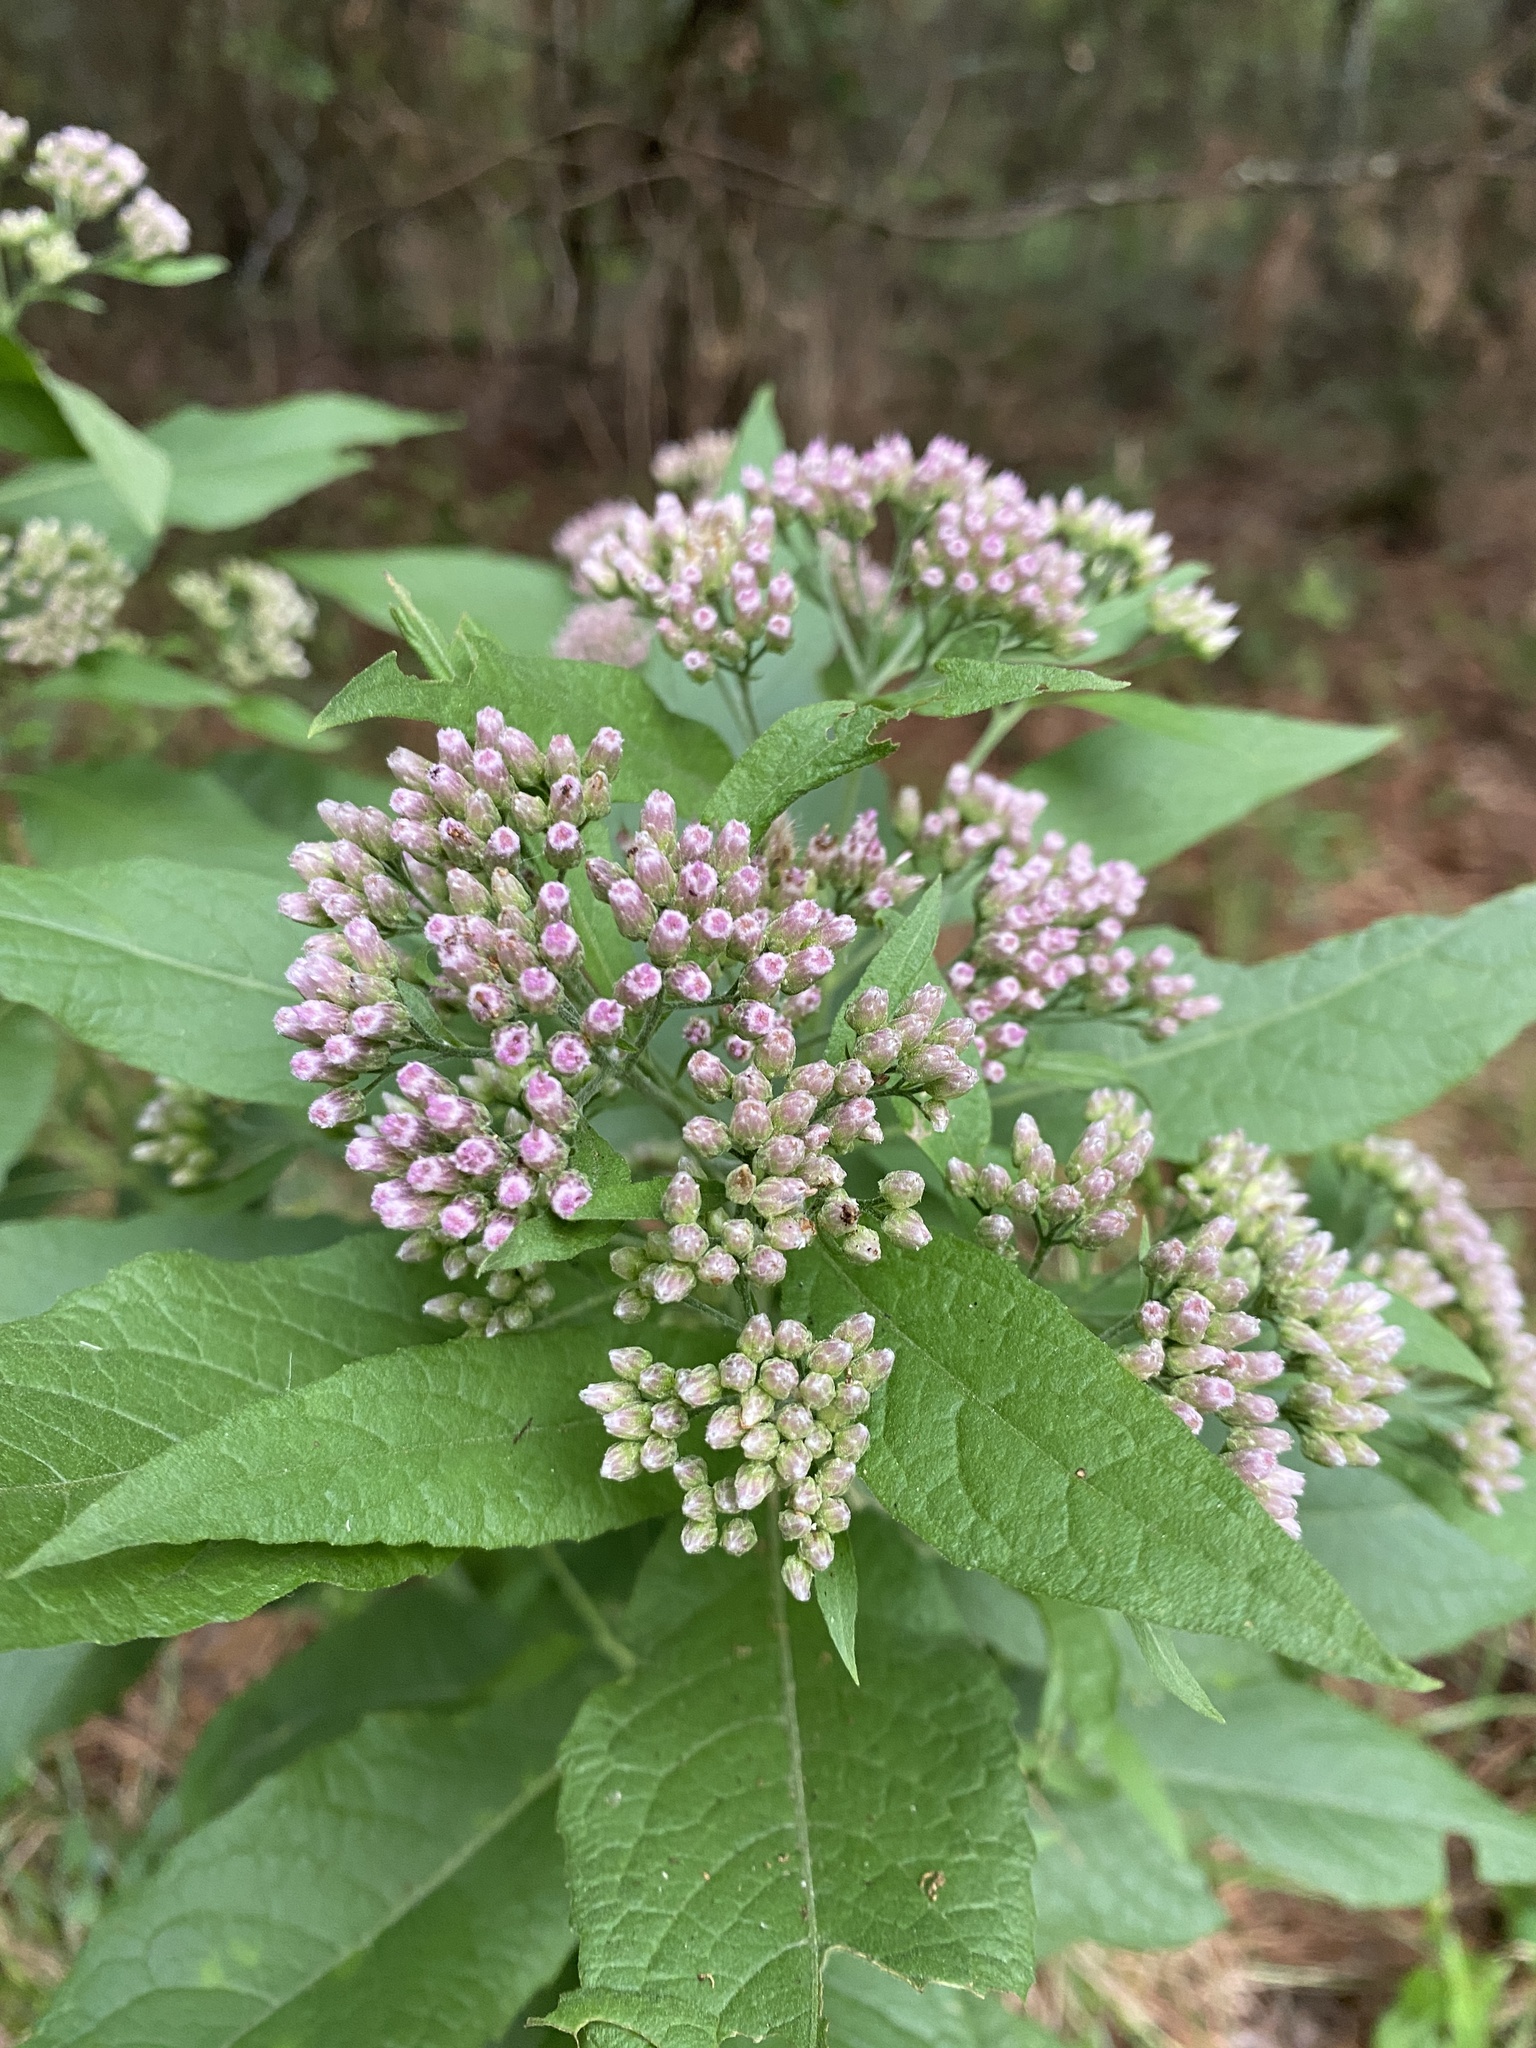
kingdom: Plantae
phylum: Tracheophyta
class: Magnoliopsida
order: Asterales
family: Asteraceae
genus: Pluchea
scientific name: Pluchea camphorata
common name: Camphor pluchea
